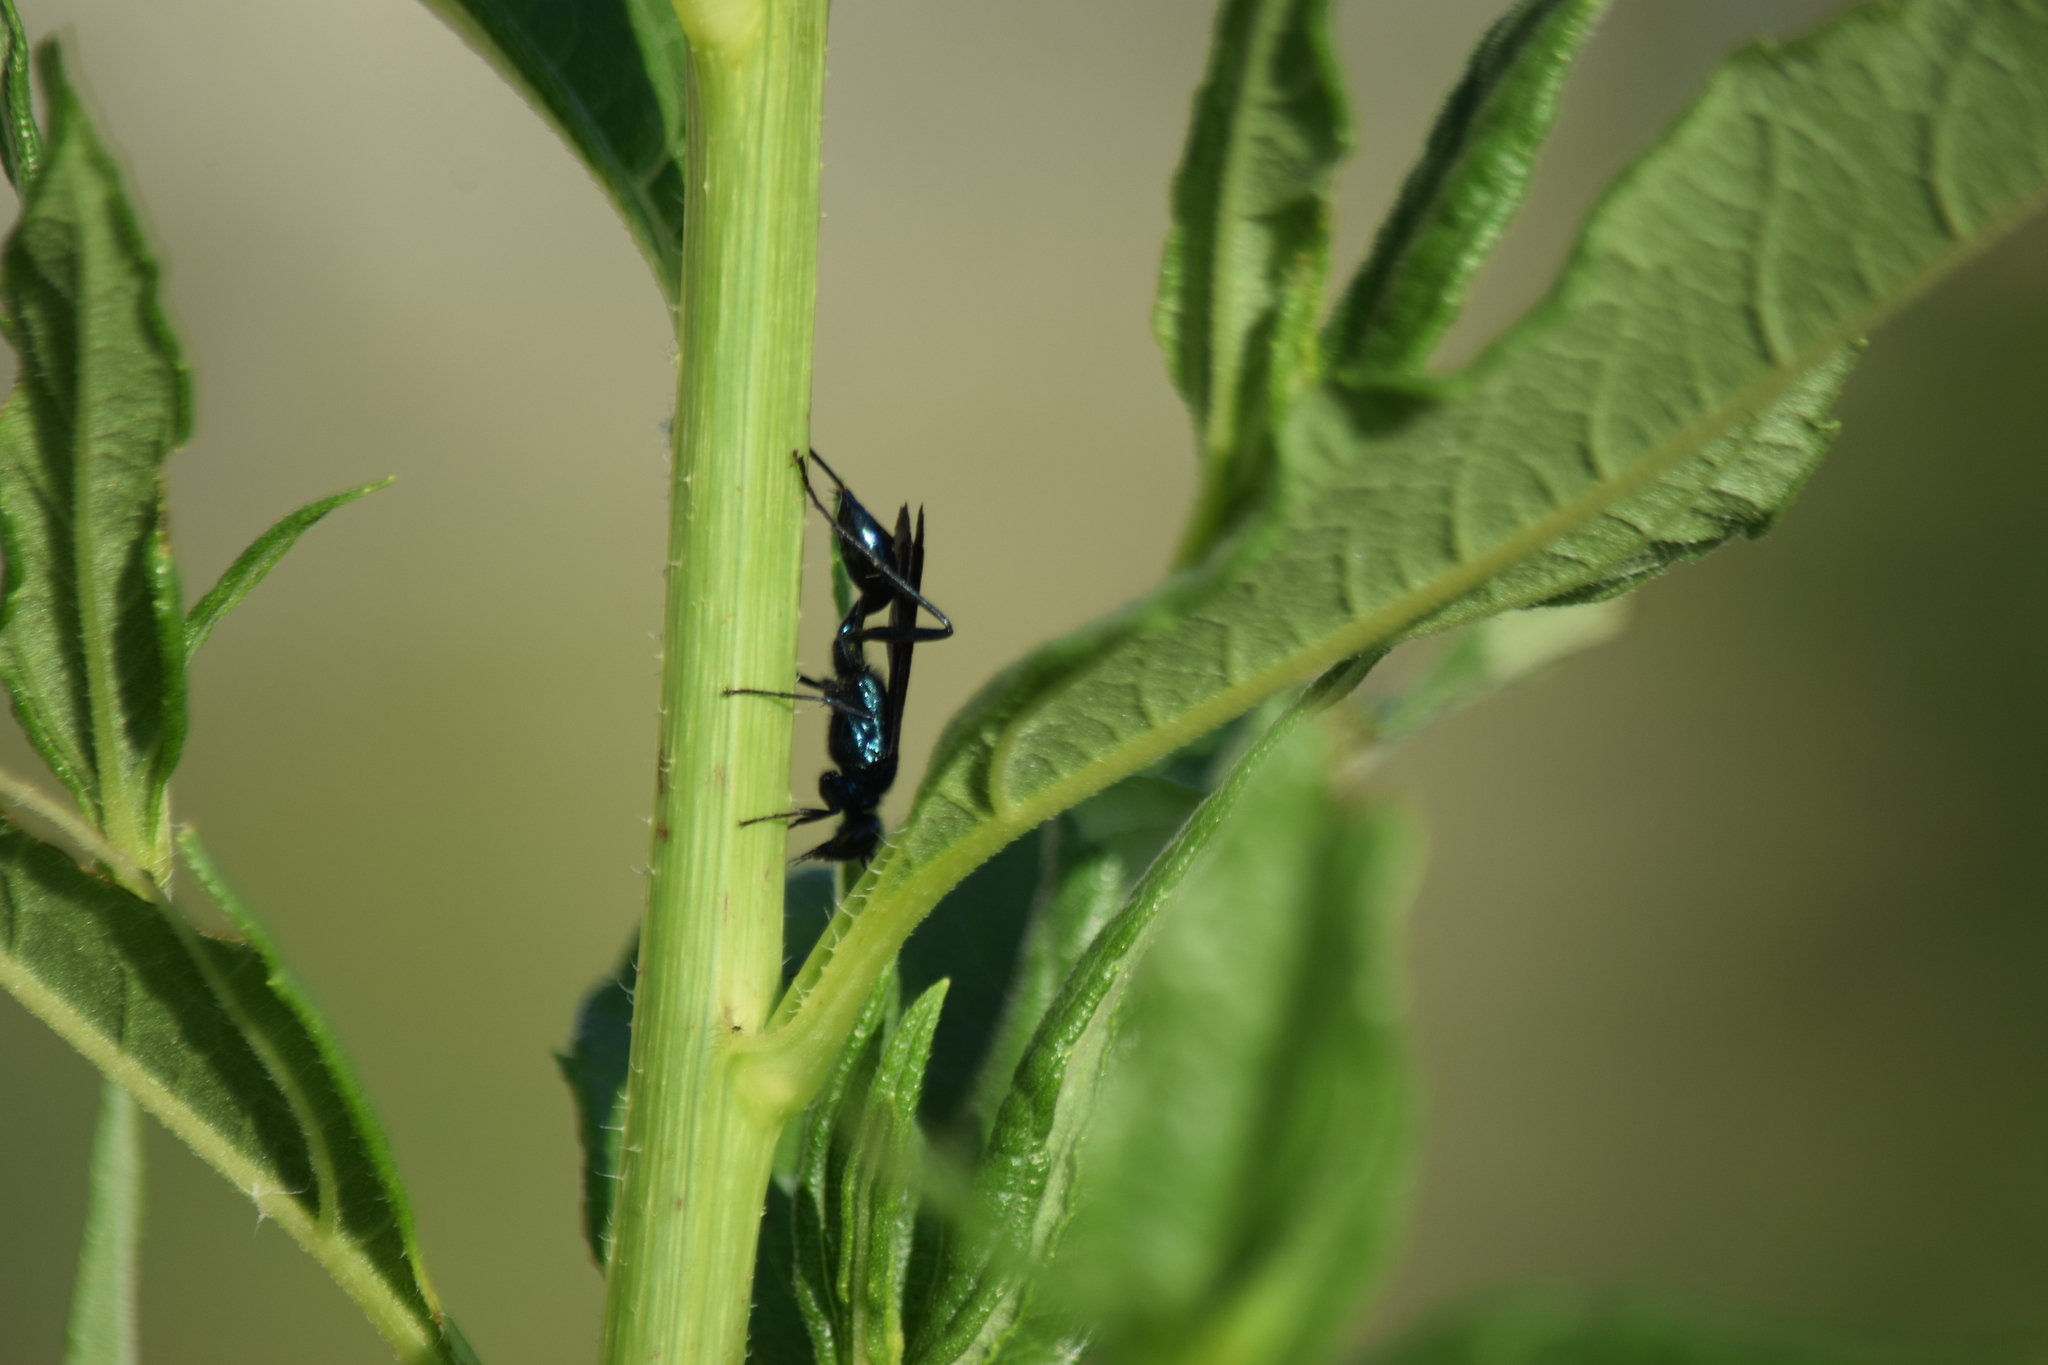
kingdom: Animalia
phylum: Arthropoda
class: Insecta
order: Hymenoptera
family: Sphecidae
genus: Chalybion
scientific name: Chalybion californicum
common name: Mud dauber
